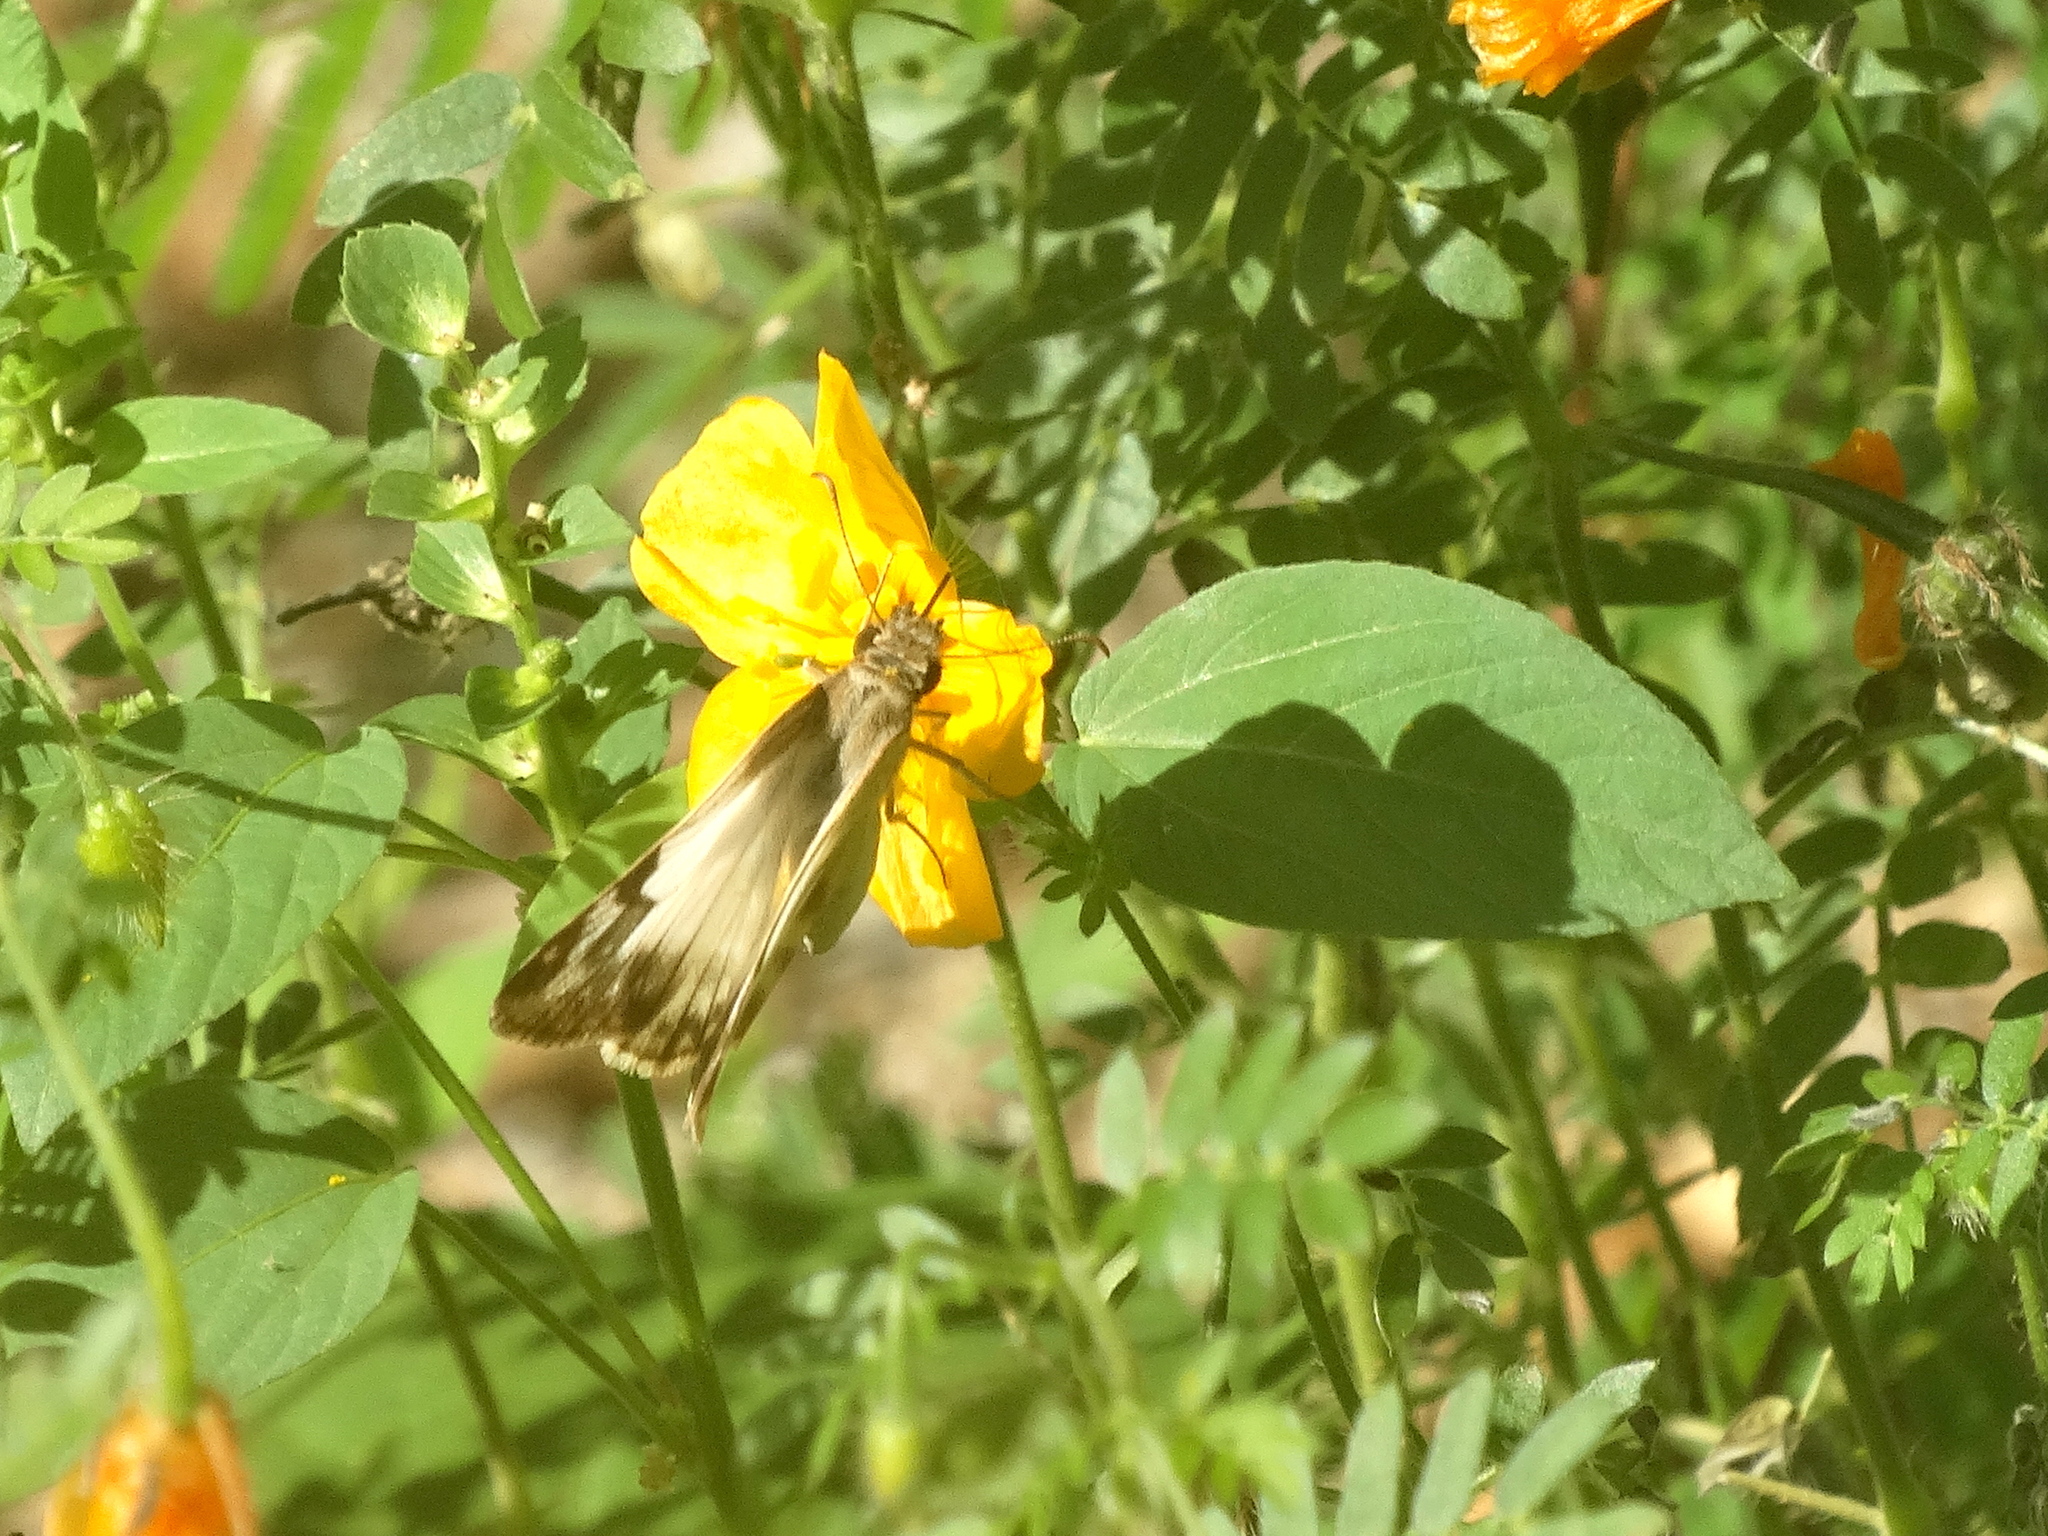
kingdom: Animalia
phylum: Arthropoda
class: Insecta
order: Lepidoptera
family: Hesperiidae
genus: Heliopetes
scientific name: Heliopetes laviana
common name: Laviana white-skipper
